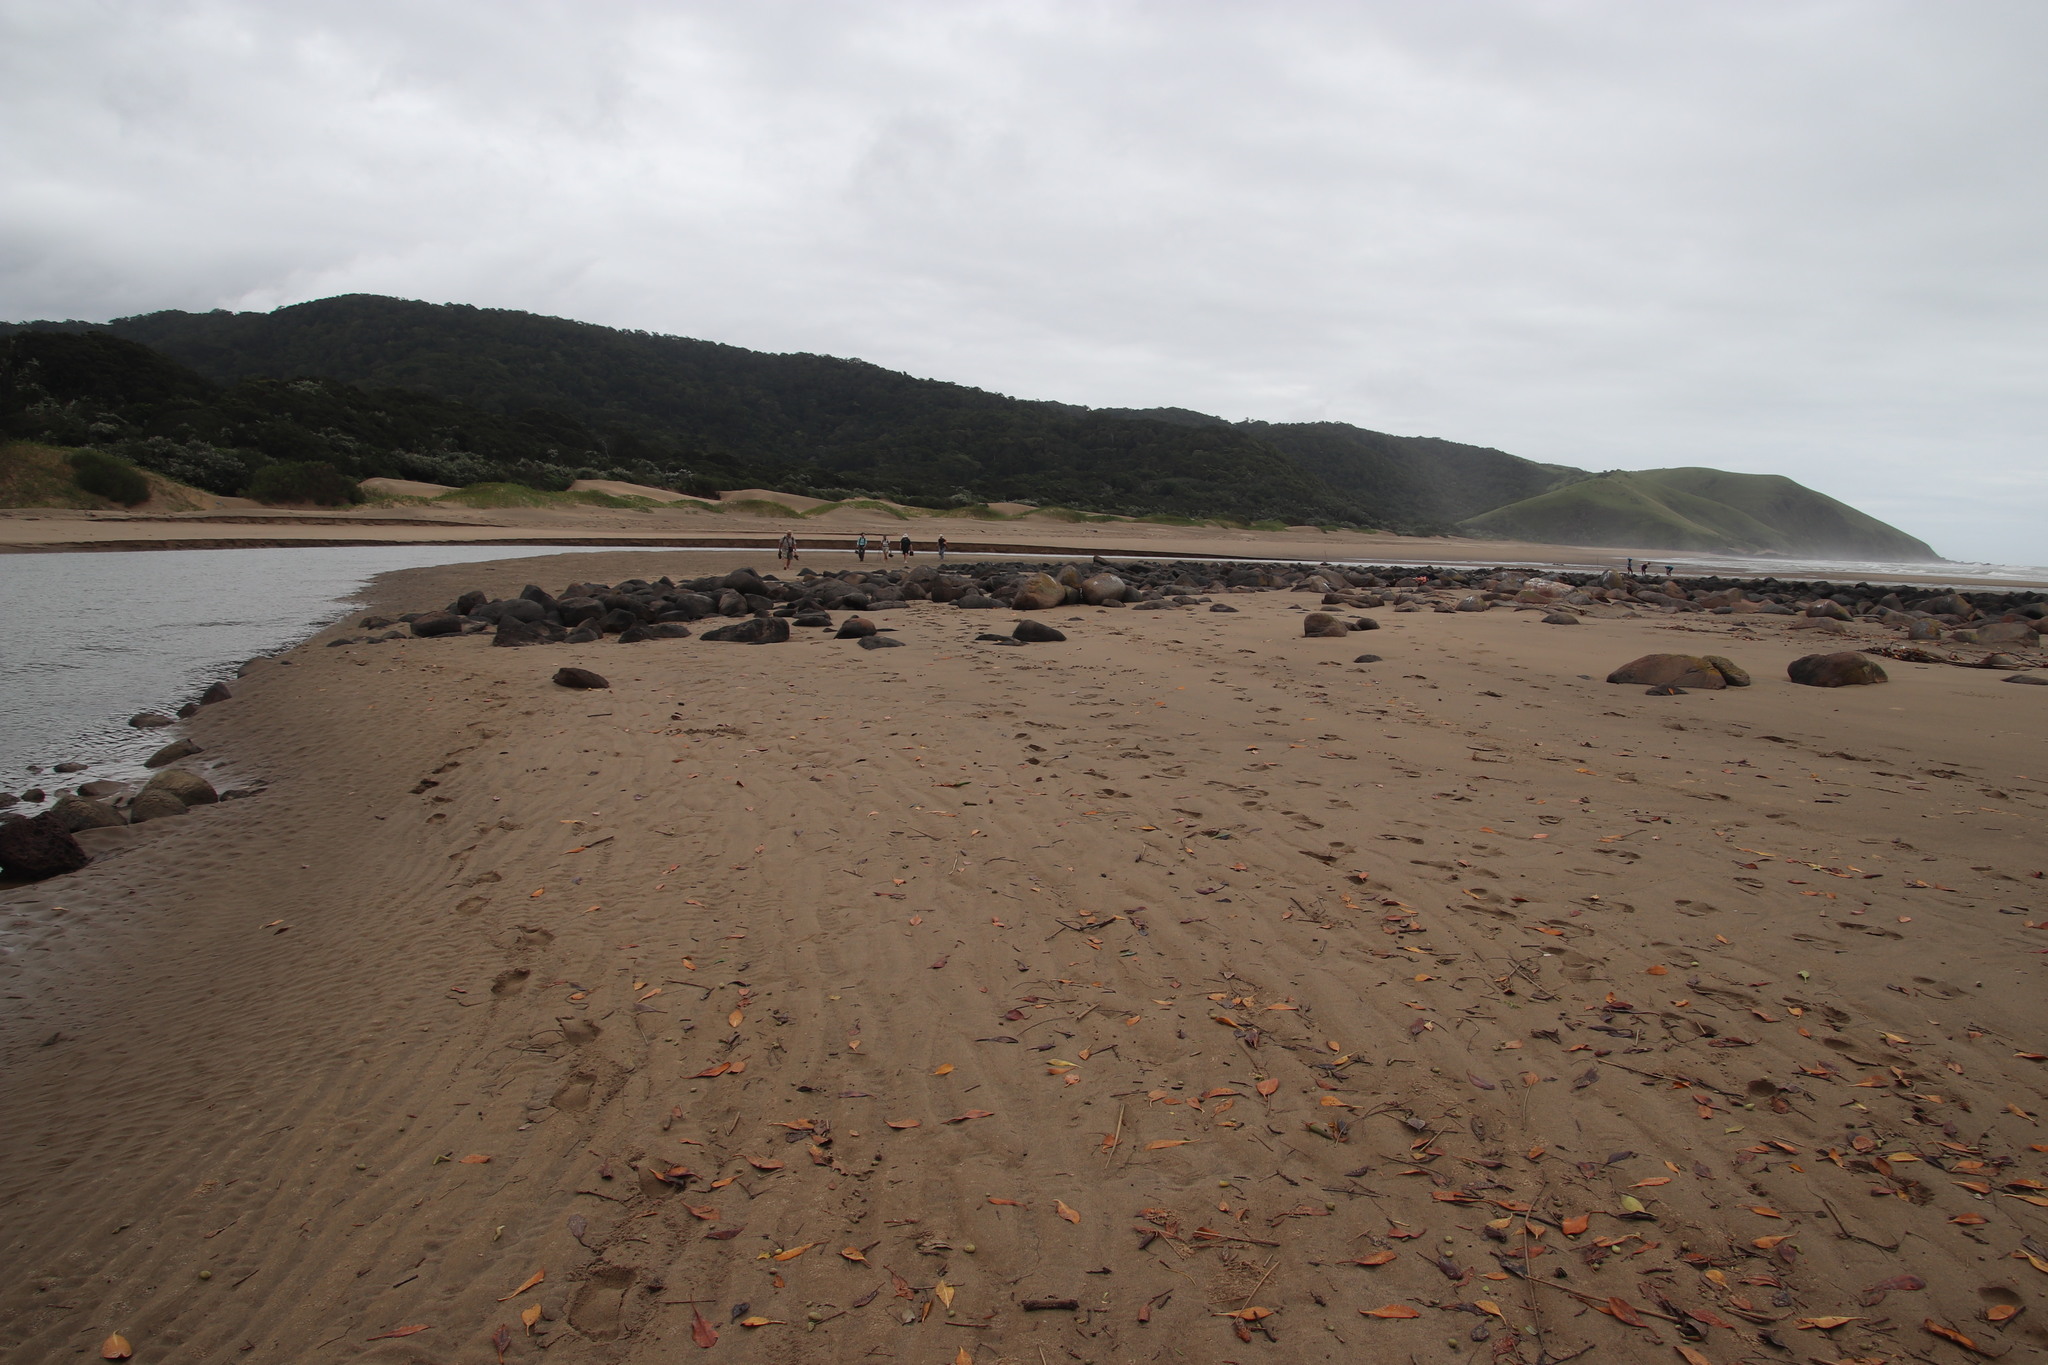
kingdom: Plantae
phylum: Tracheophyta
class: Magnoliopsida
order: Malpighiales
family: Rhizophoraceae
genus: Bruguiera
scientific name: Bruguiera gymnorhiza
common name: Oriental mangrove
